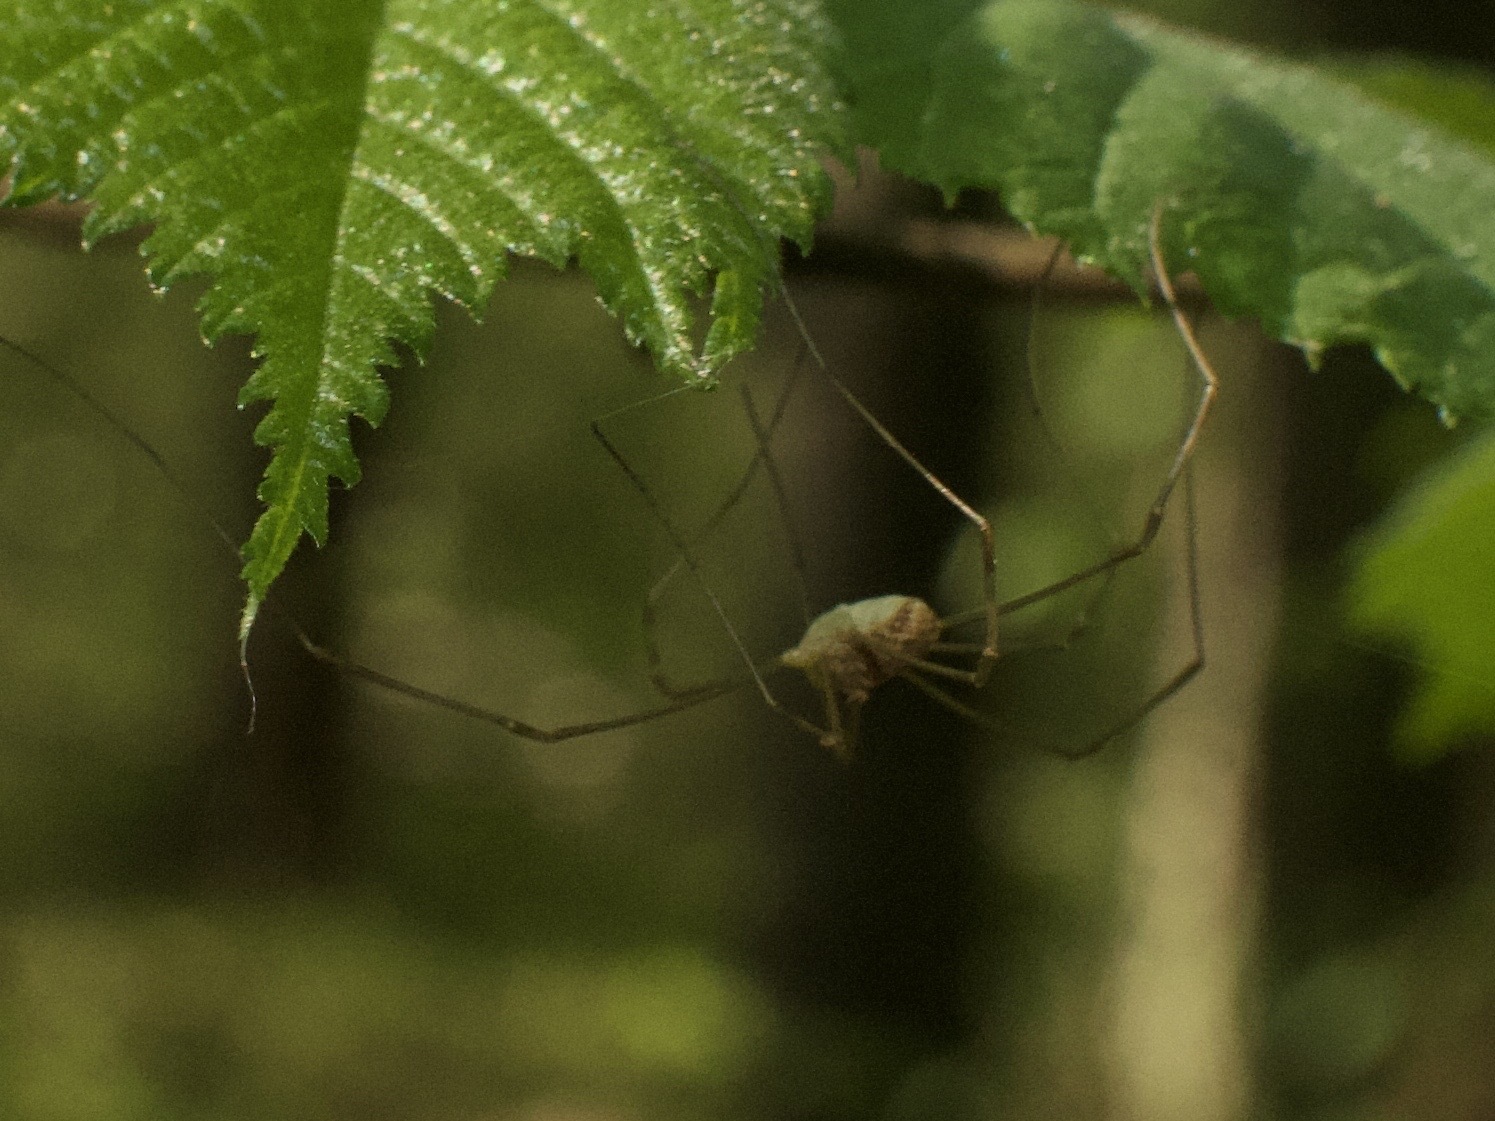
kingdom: Animalia
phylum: Arthropoda
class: Arachnida
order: Opiliones
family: Phalangiidae
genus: Rilaena
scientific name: Rilaena triangularis
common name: Spring harvestman
